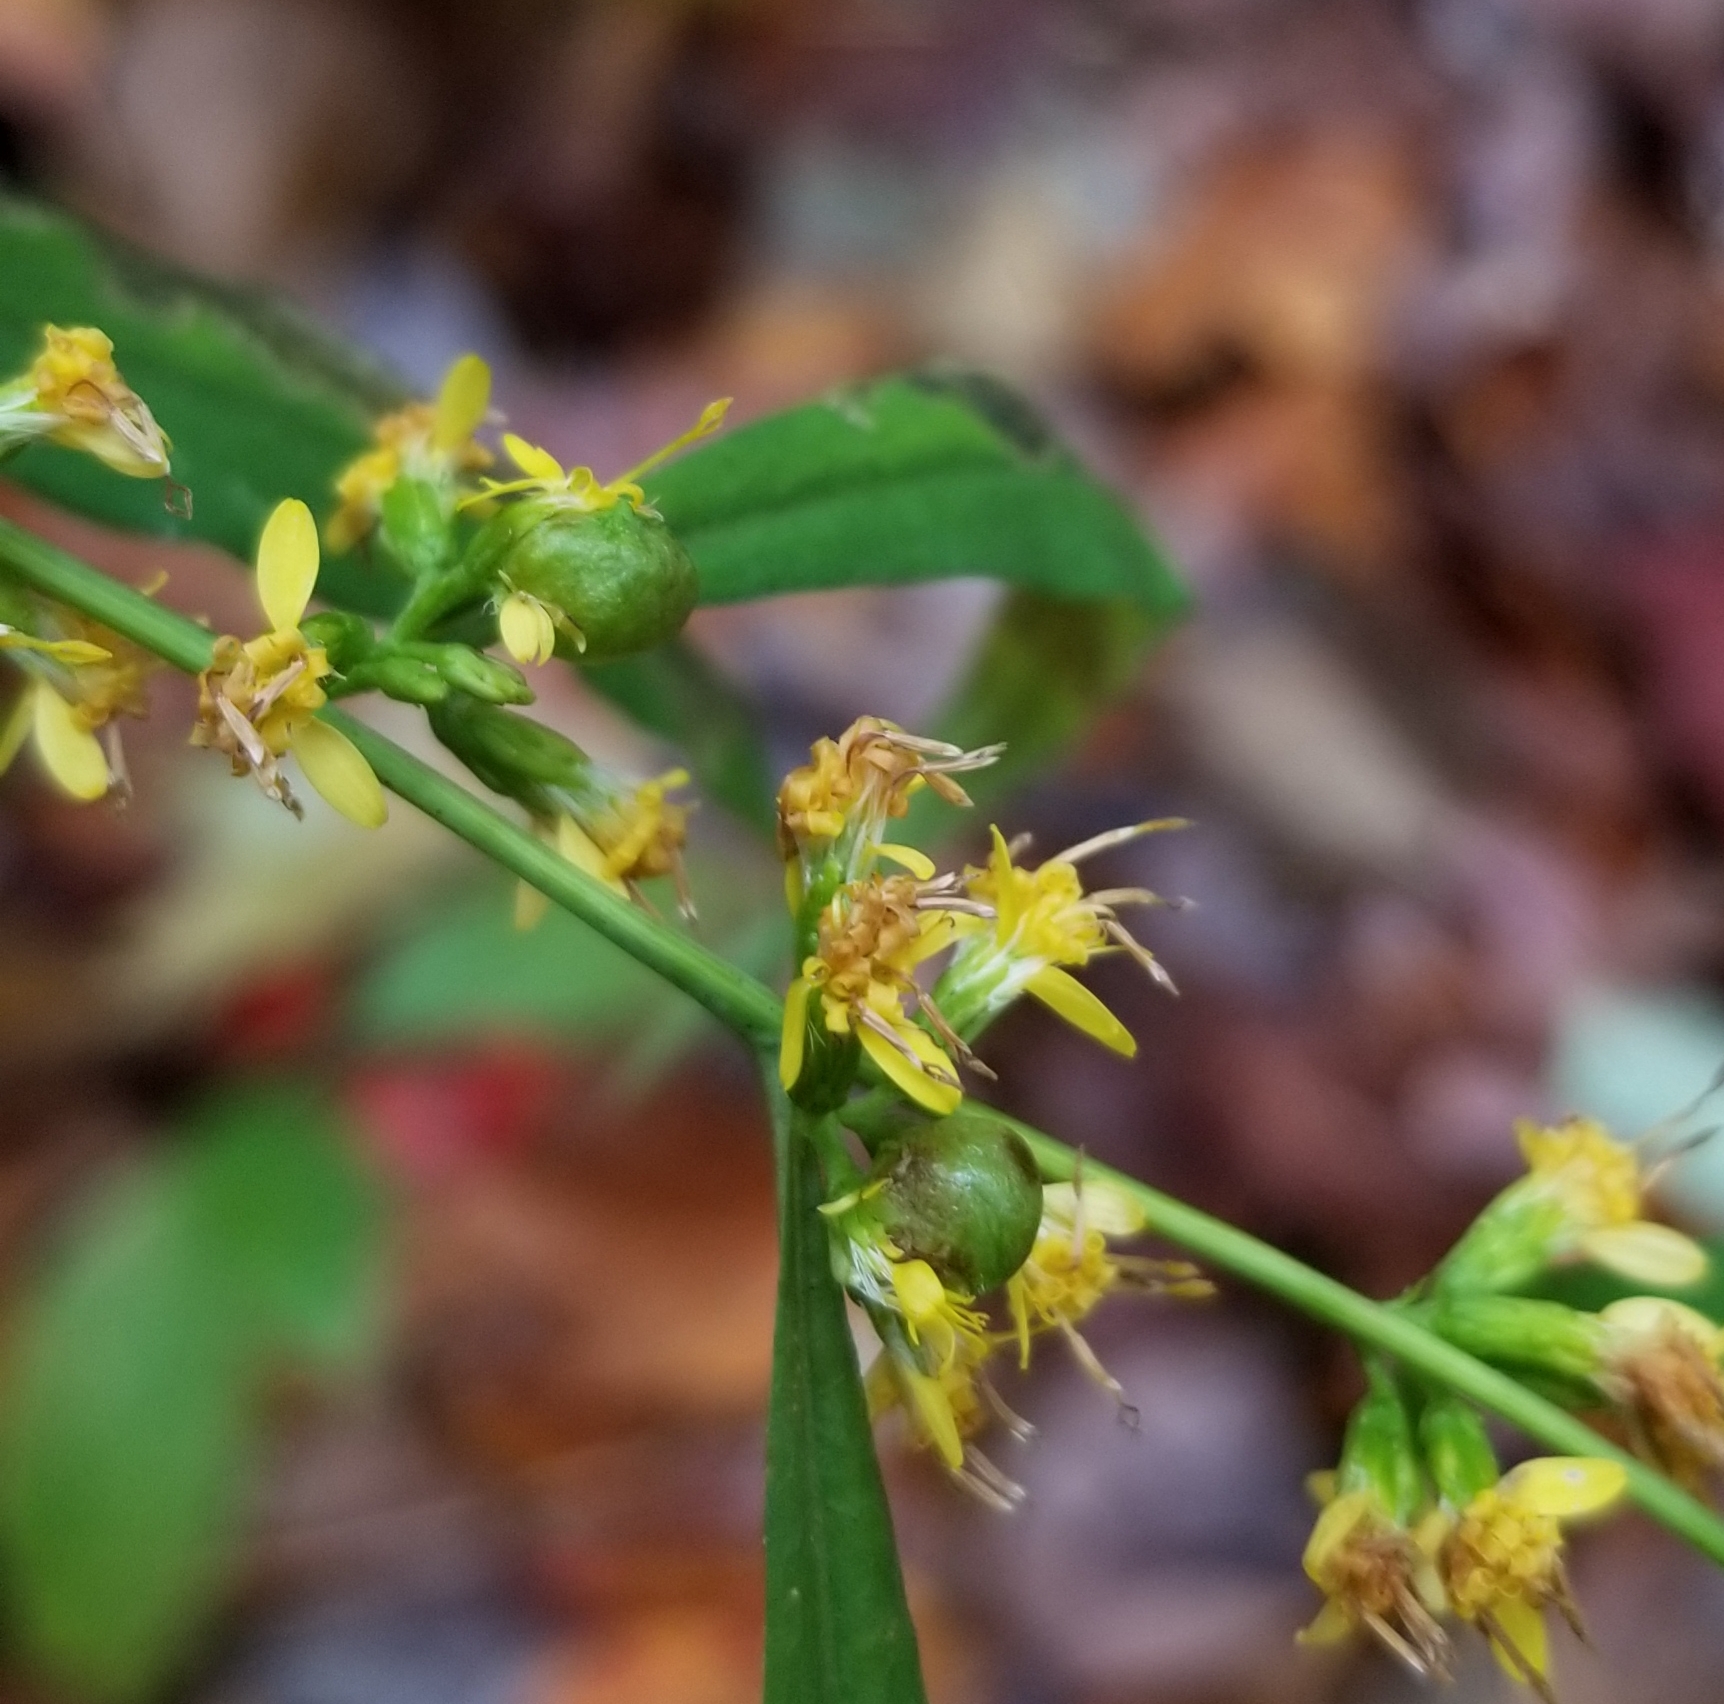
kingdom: Animalia
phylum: Arthropoda
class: Insecta
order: Diptera
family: Cecidomyiidae
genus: Schizomyia
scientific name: Schizomyia racemicola
